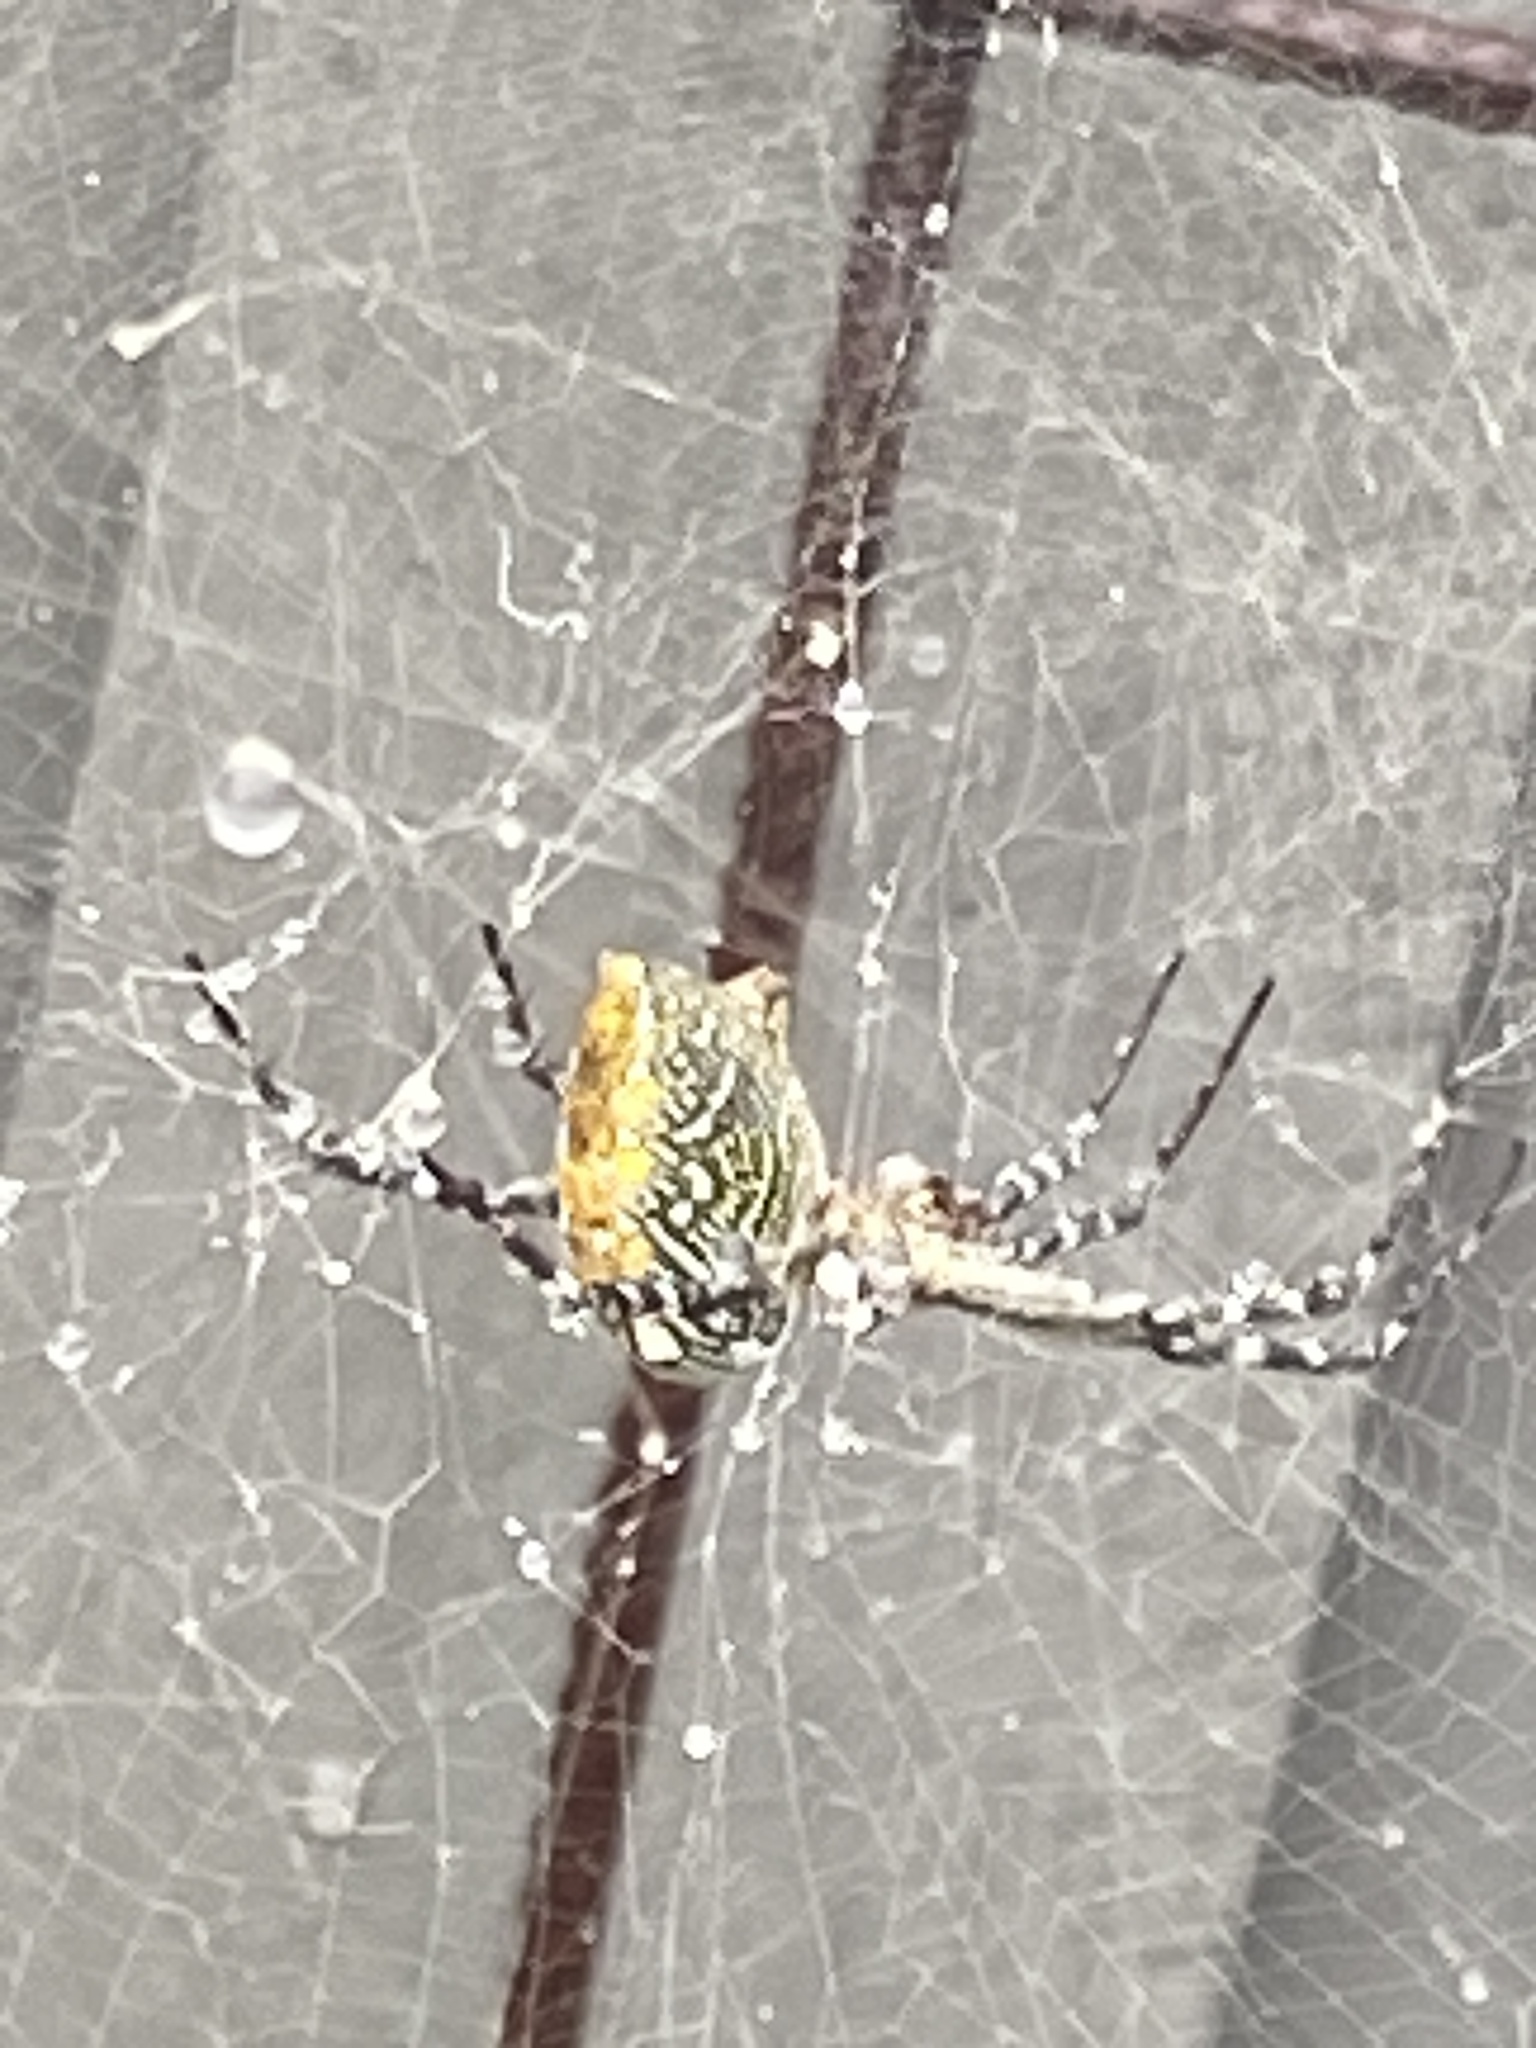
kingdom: Chromista
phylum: Ochrophyta
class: Dictyochophyceae
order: Pedinellales
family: Cyrtophoraceae
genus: Cyrtophora
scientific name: Cyrtophora moluccensis
